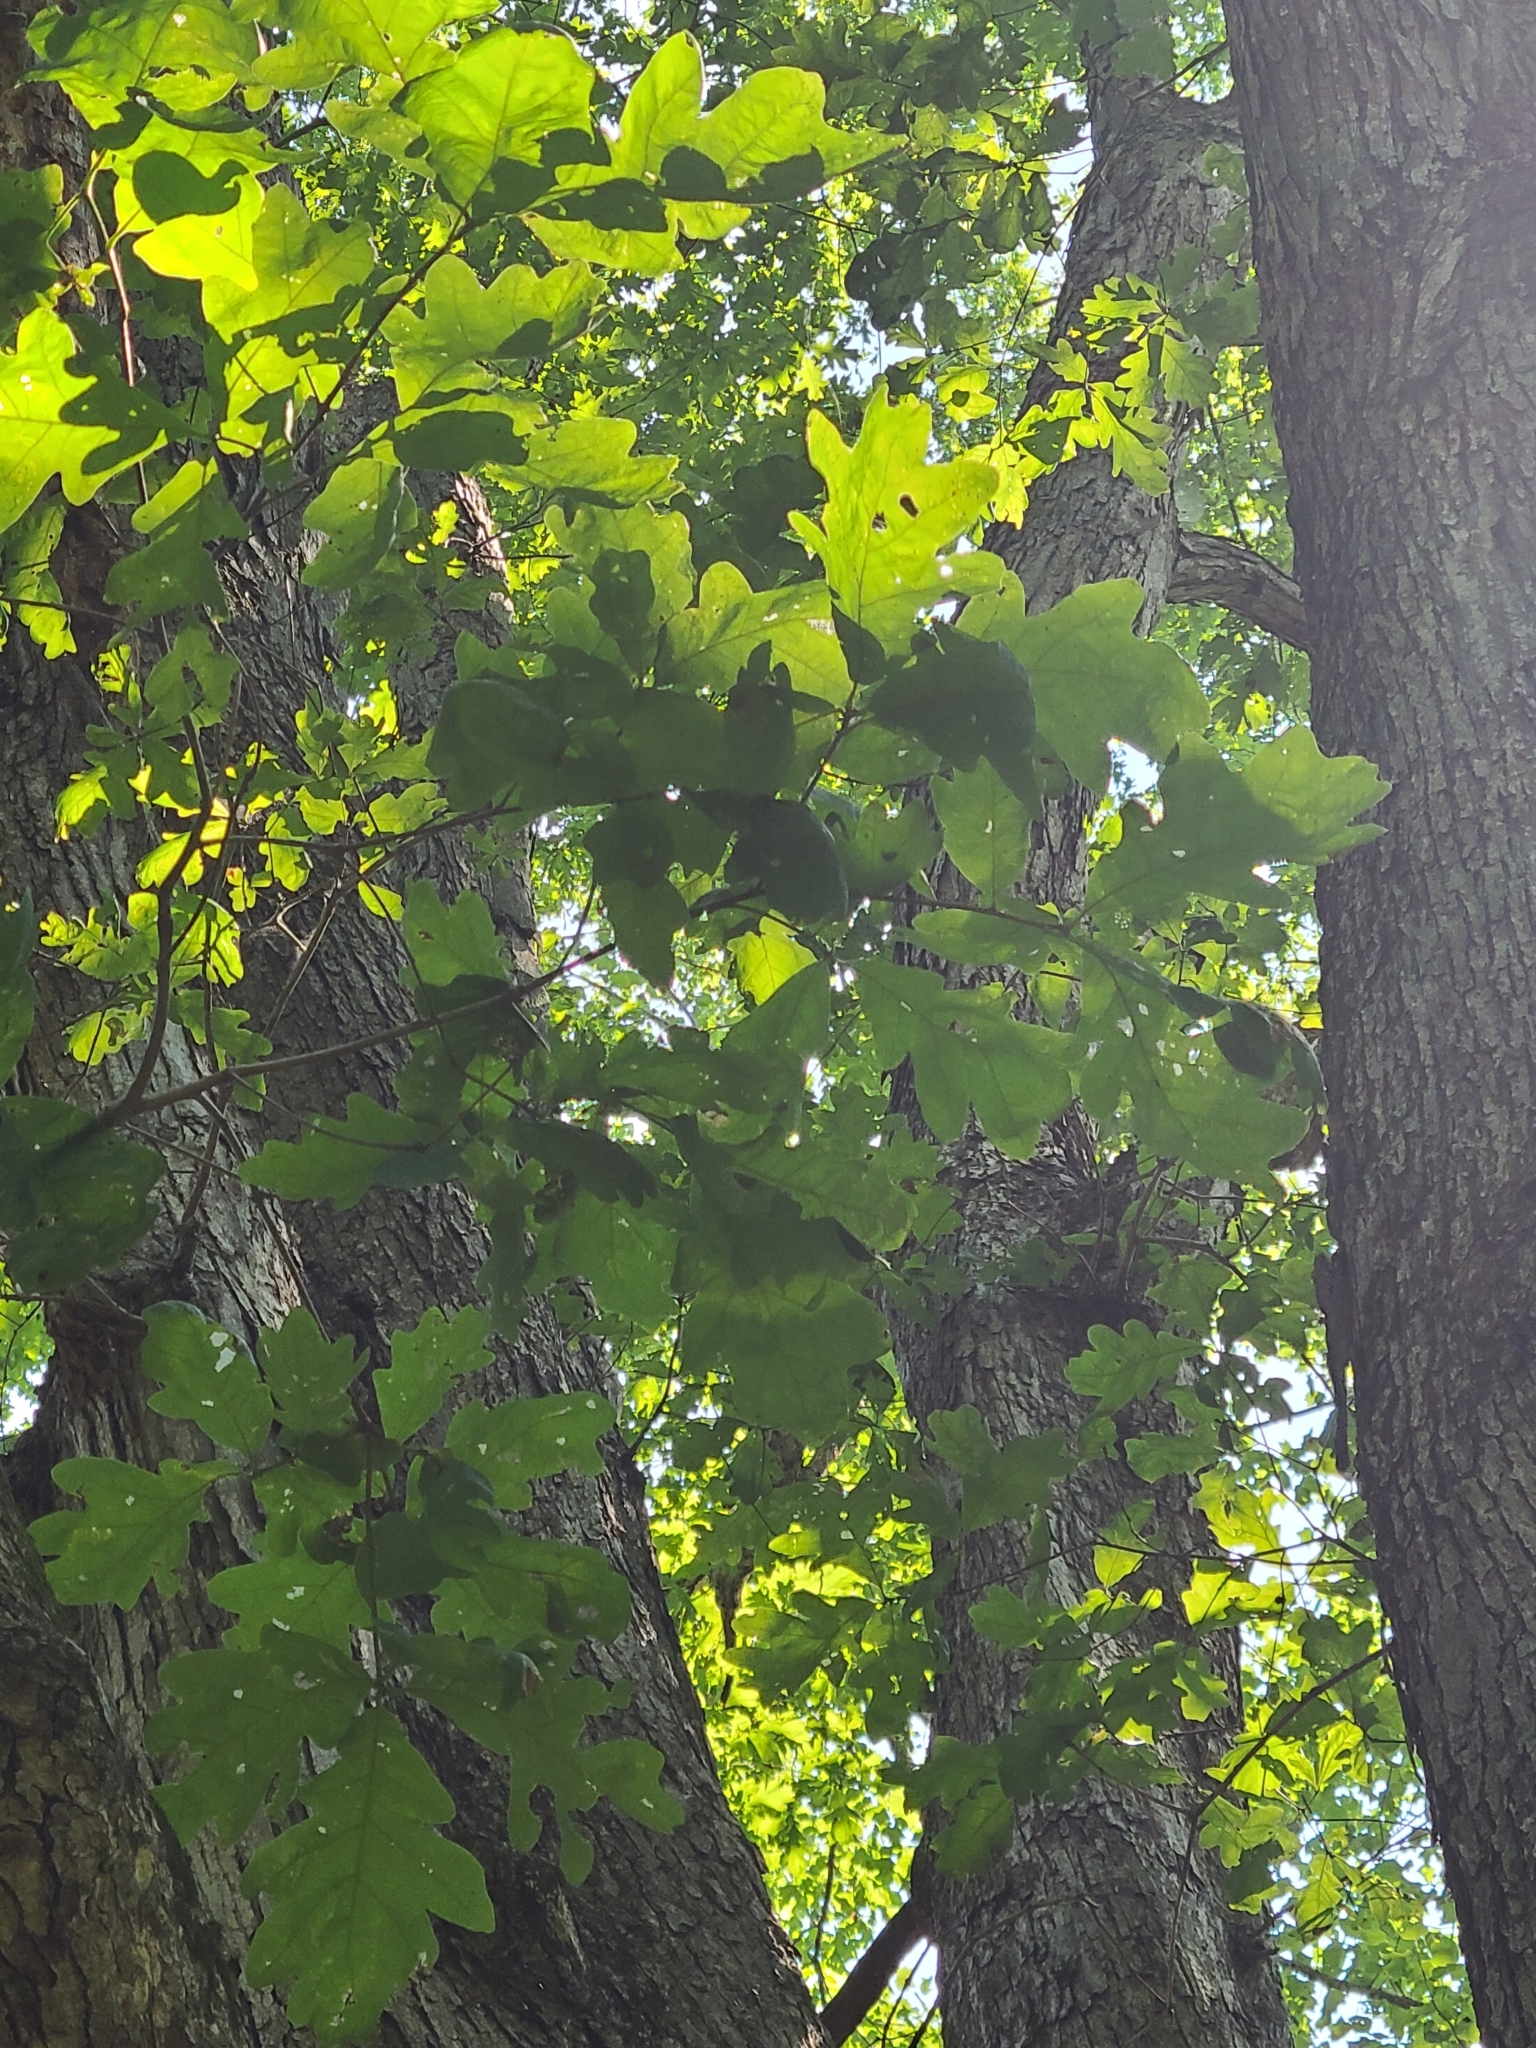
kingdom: Plantae
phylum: Tracheophyta
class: Magnoliopsida
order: Fagales
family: Fagaceae
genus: Quercus
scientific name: Quercus alba
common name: White oak
